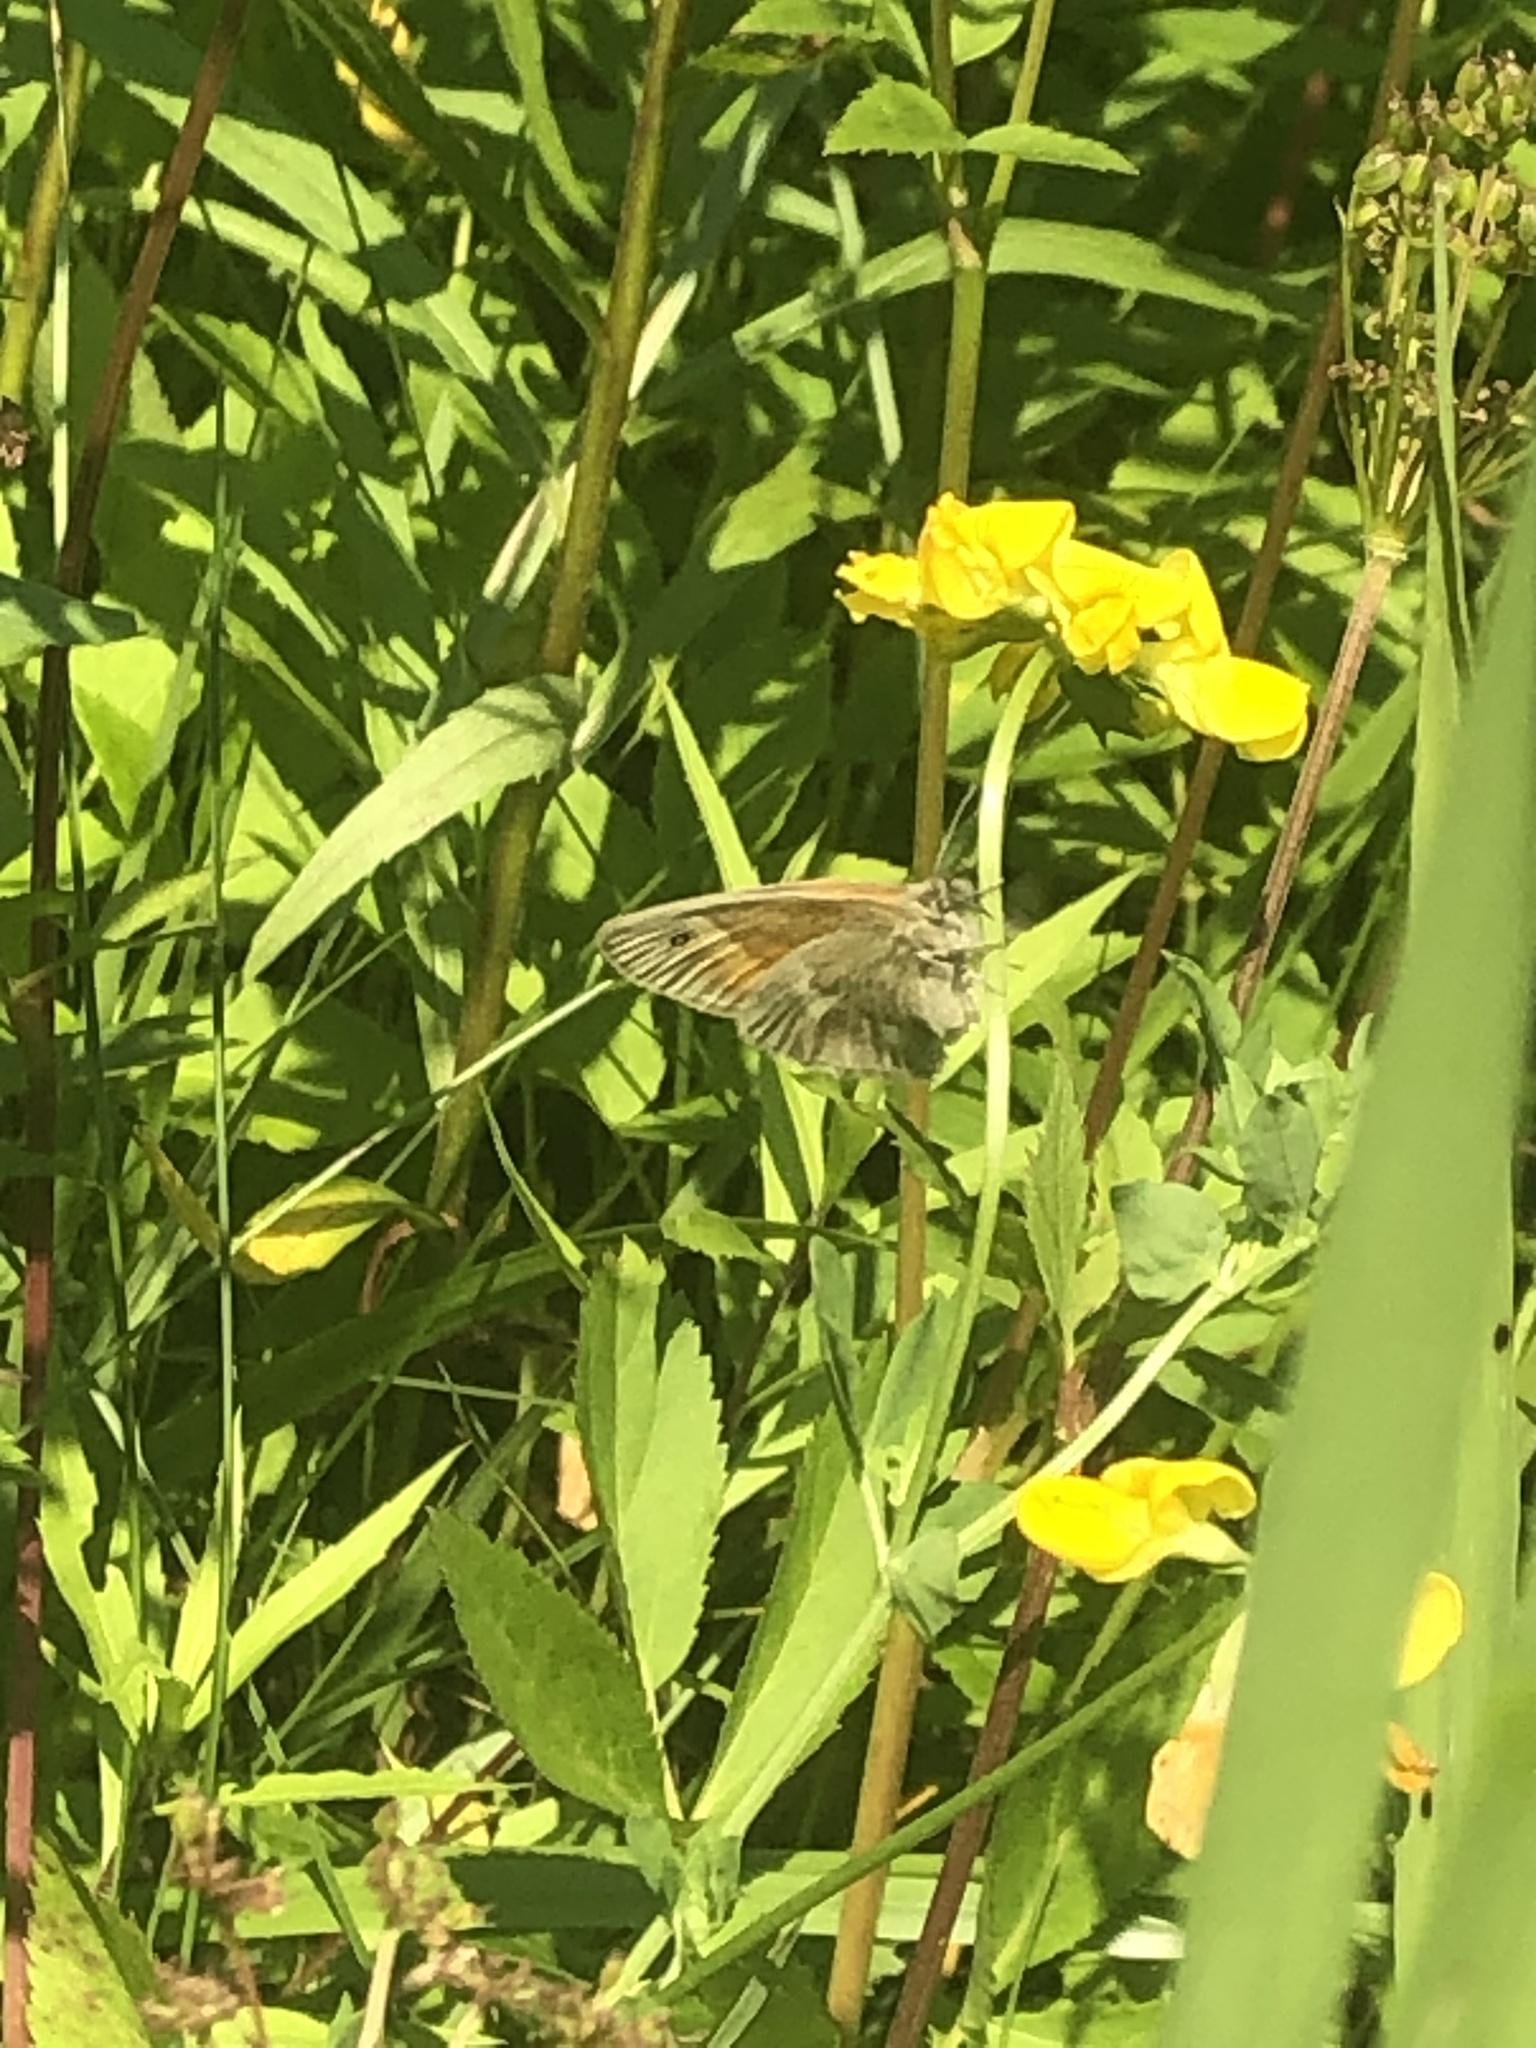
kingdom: Animalia
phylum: Arthropoda
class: Insecta
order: Lepidoptera
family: Nymphalidae
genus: Coenonympha
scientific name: Coenonympha california
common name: Common ringlet
